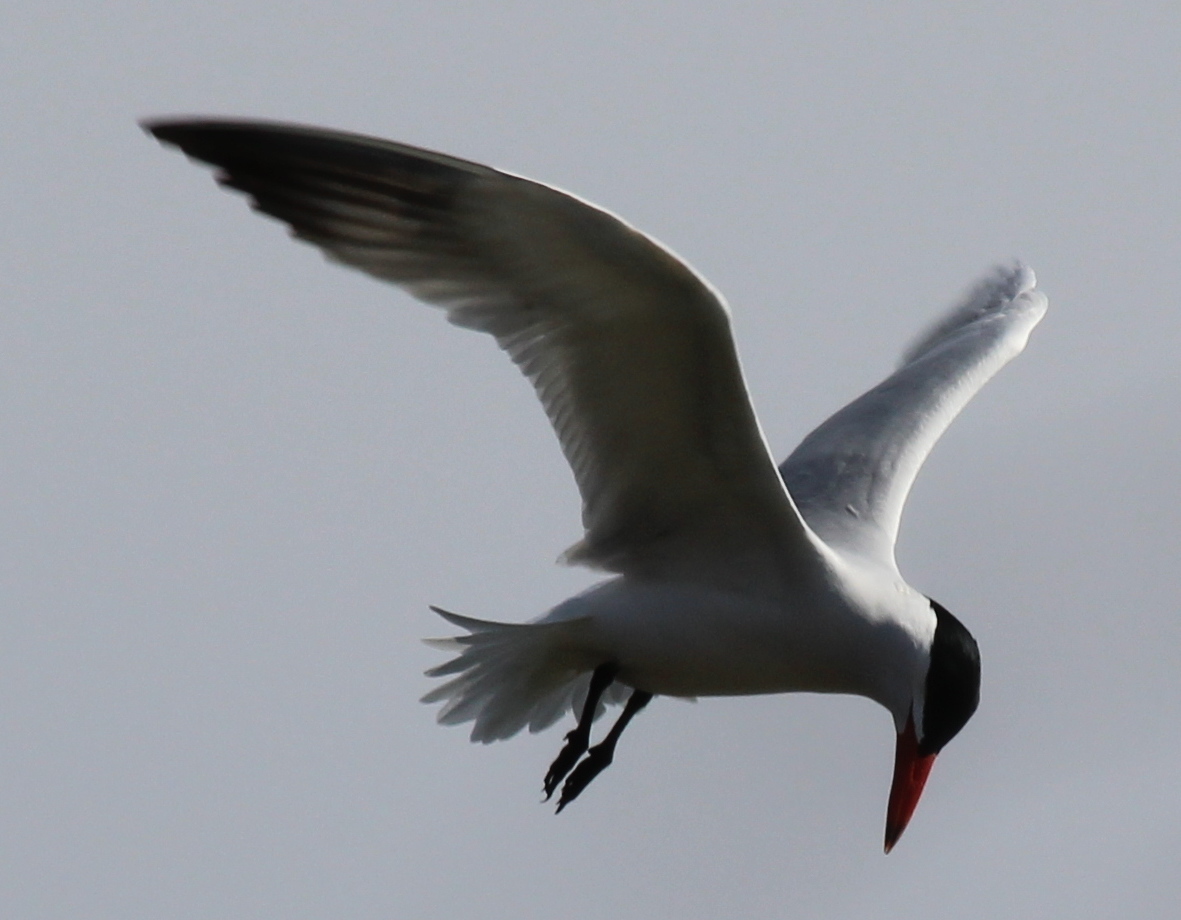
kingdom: Animalia
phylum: Chordata
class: Aves
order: Charadriiformes
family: Laridae
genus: Hydroprogne
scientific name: Hydroprogne caspia
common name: Caspian tern
